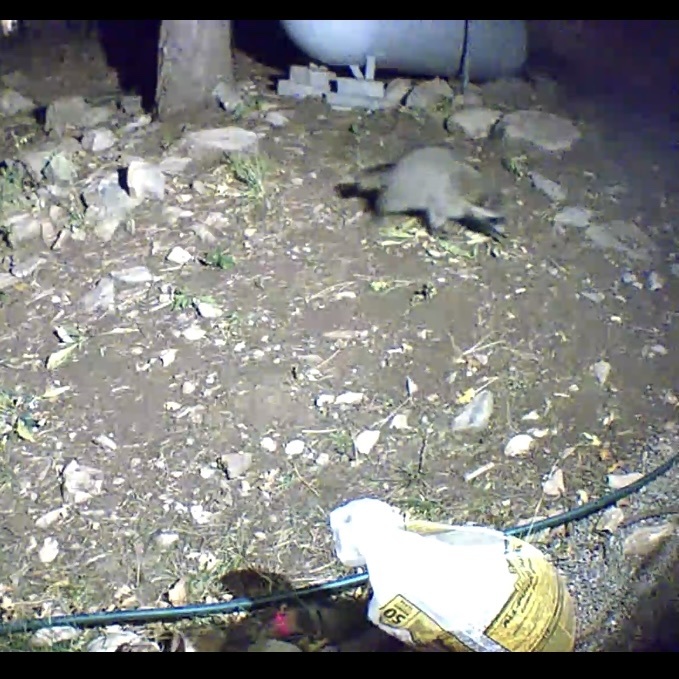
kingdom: Animalia
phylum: Chordata
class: Mammalia
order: Carnivora
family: Procyonidae
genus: Procyon
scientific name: Procyon lotor
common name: Raccoon
